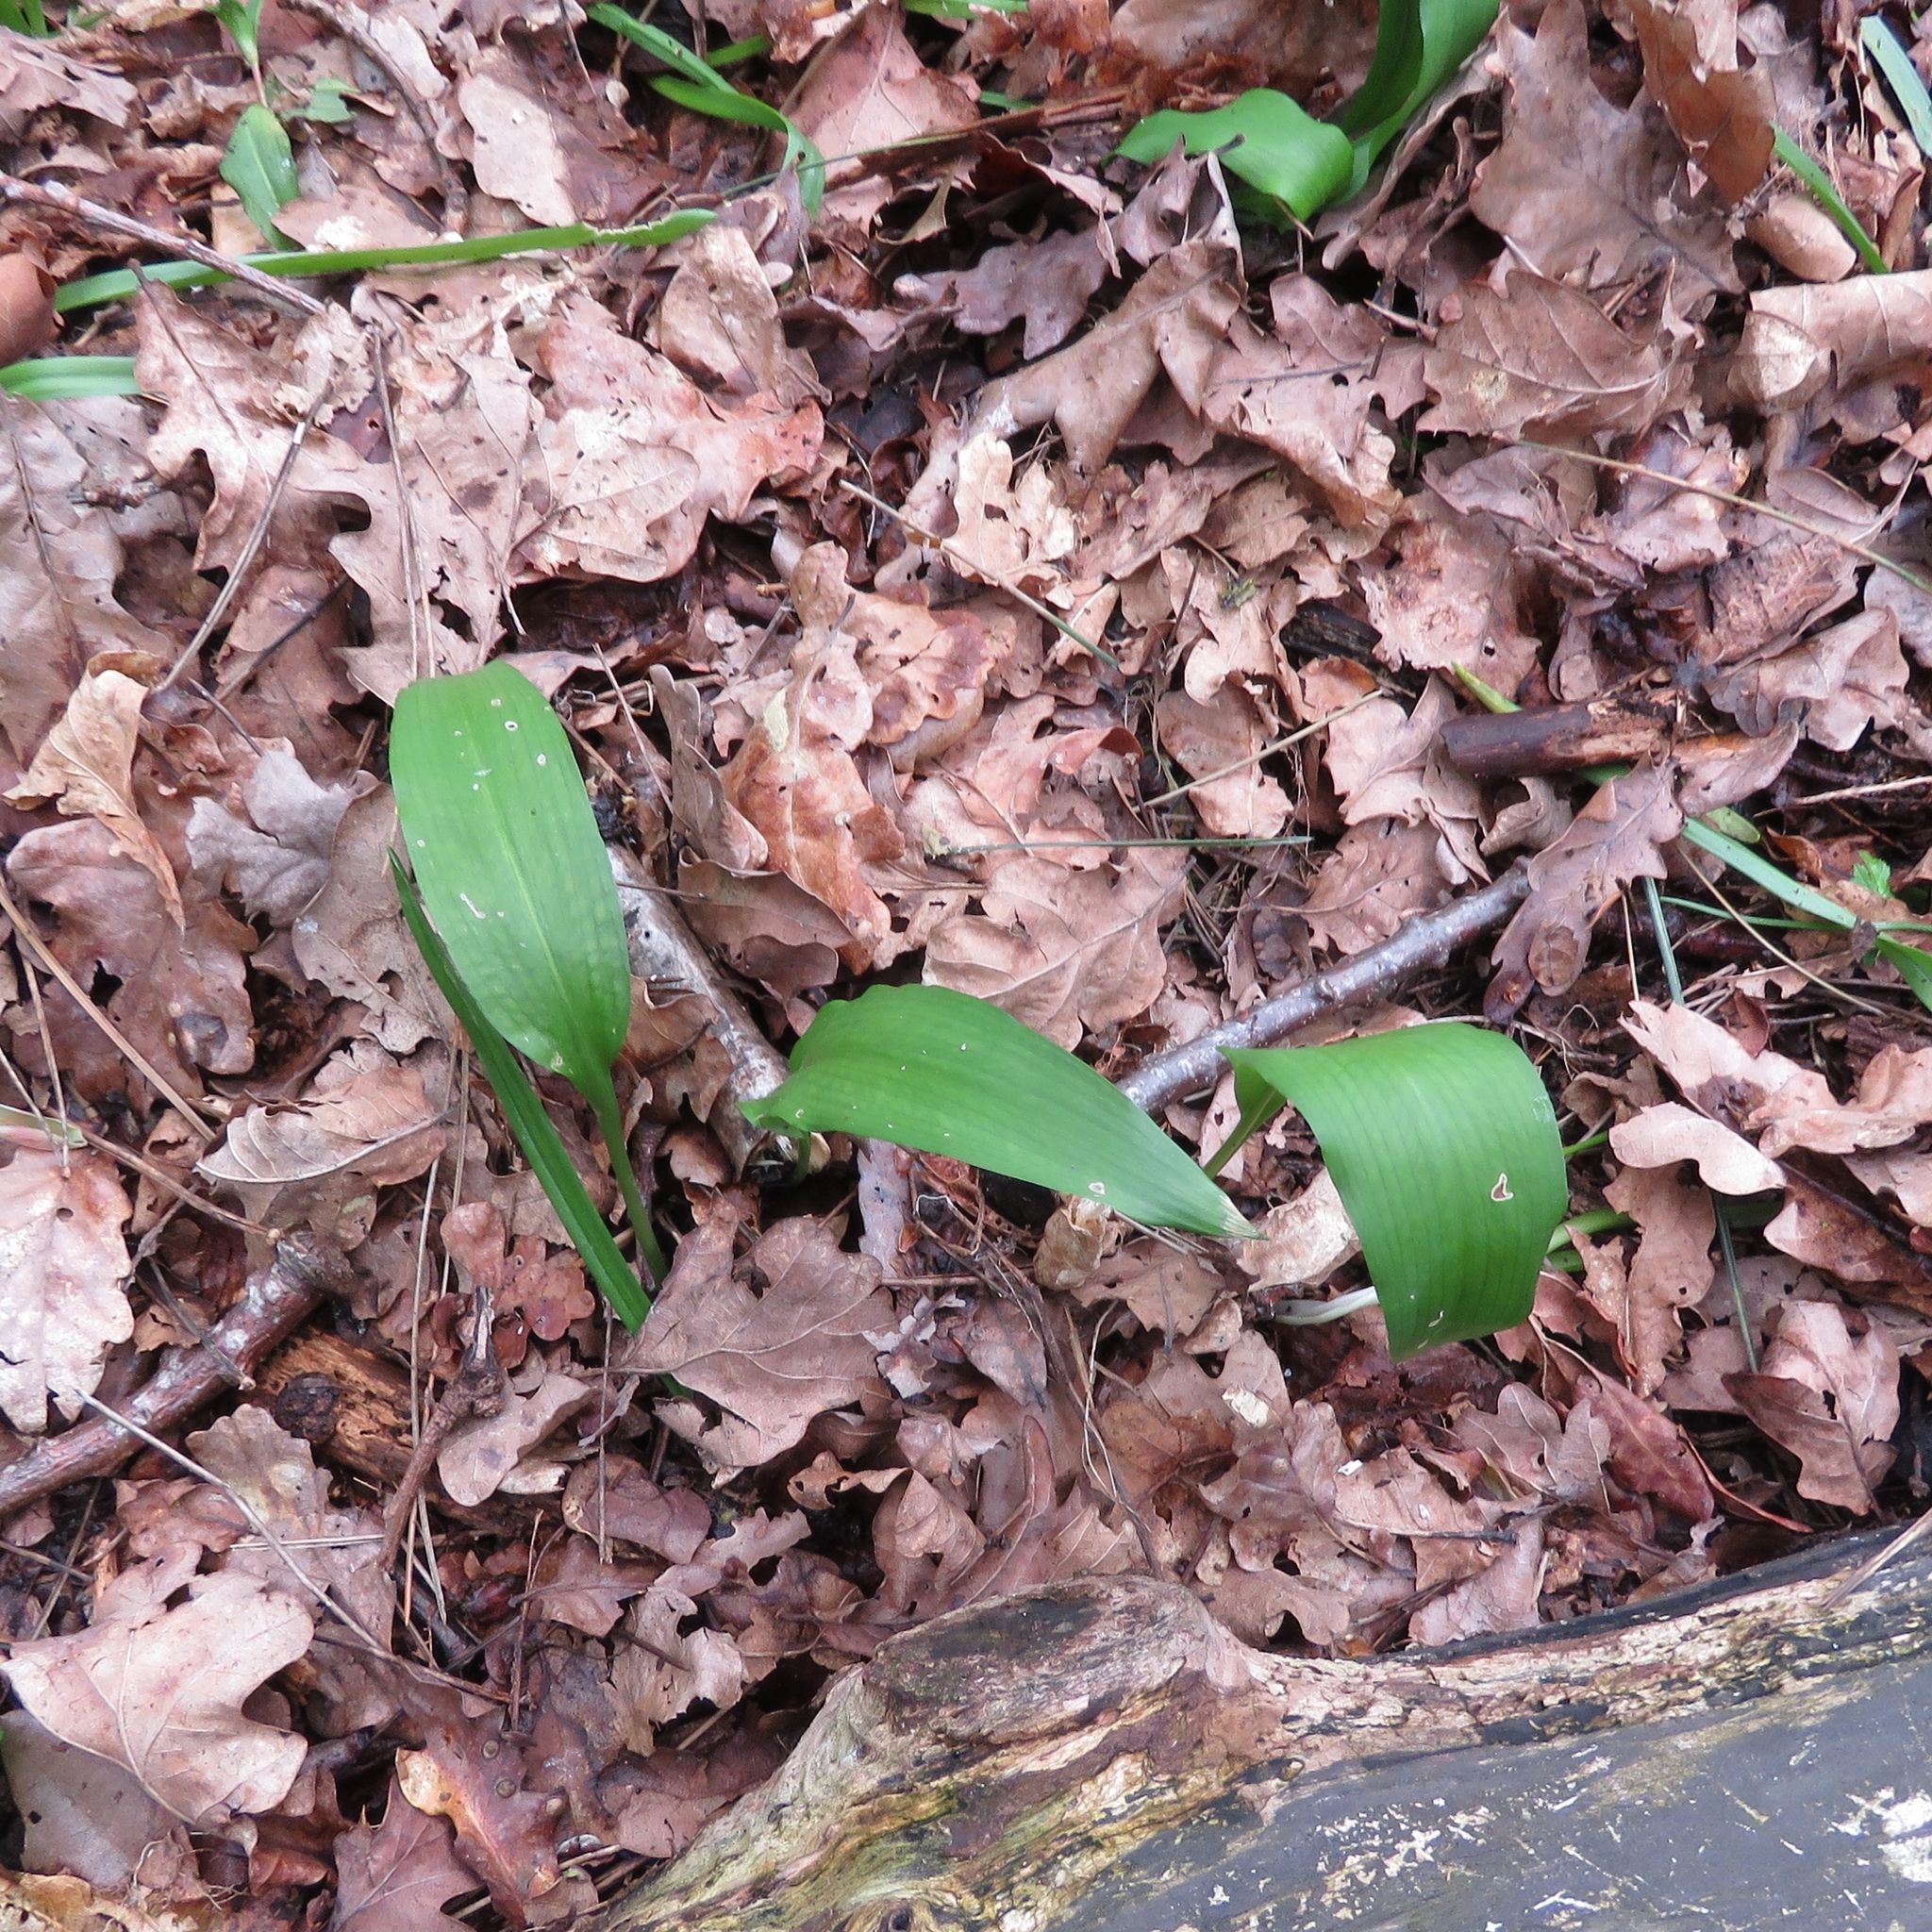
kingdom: Plantae
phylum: Tracheophyta
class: Liliopsida
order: Asparagales
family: Amaryllidaceae
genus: Allium
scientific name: Allium ursinum
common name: Ramsons
